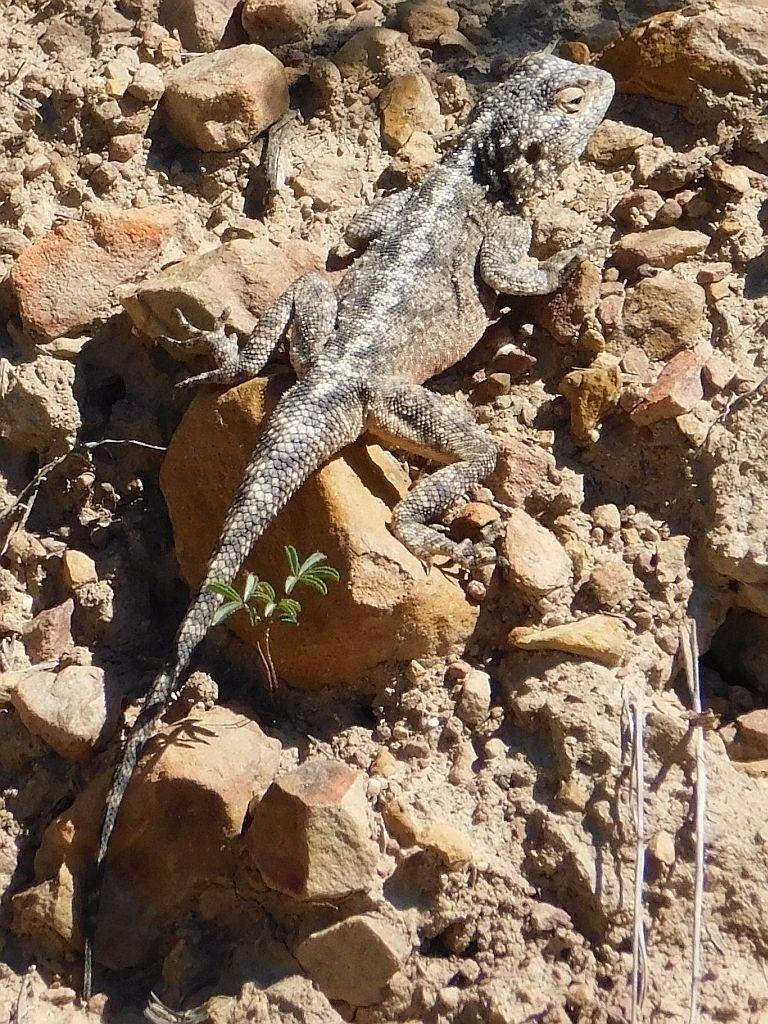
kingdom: Animalia
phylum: Chordata
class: Squamata
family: Agamidae
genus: Agama
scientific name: Agama atra
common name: Southern african rock agama
